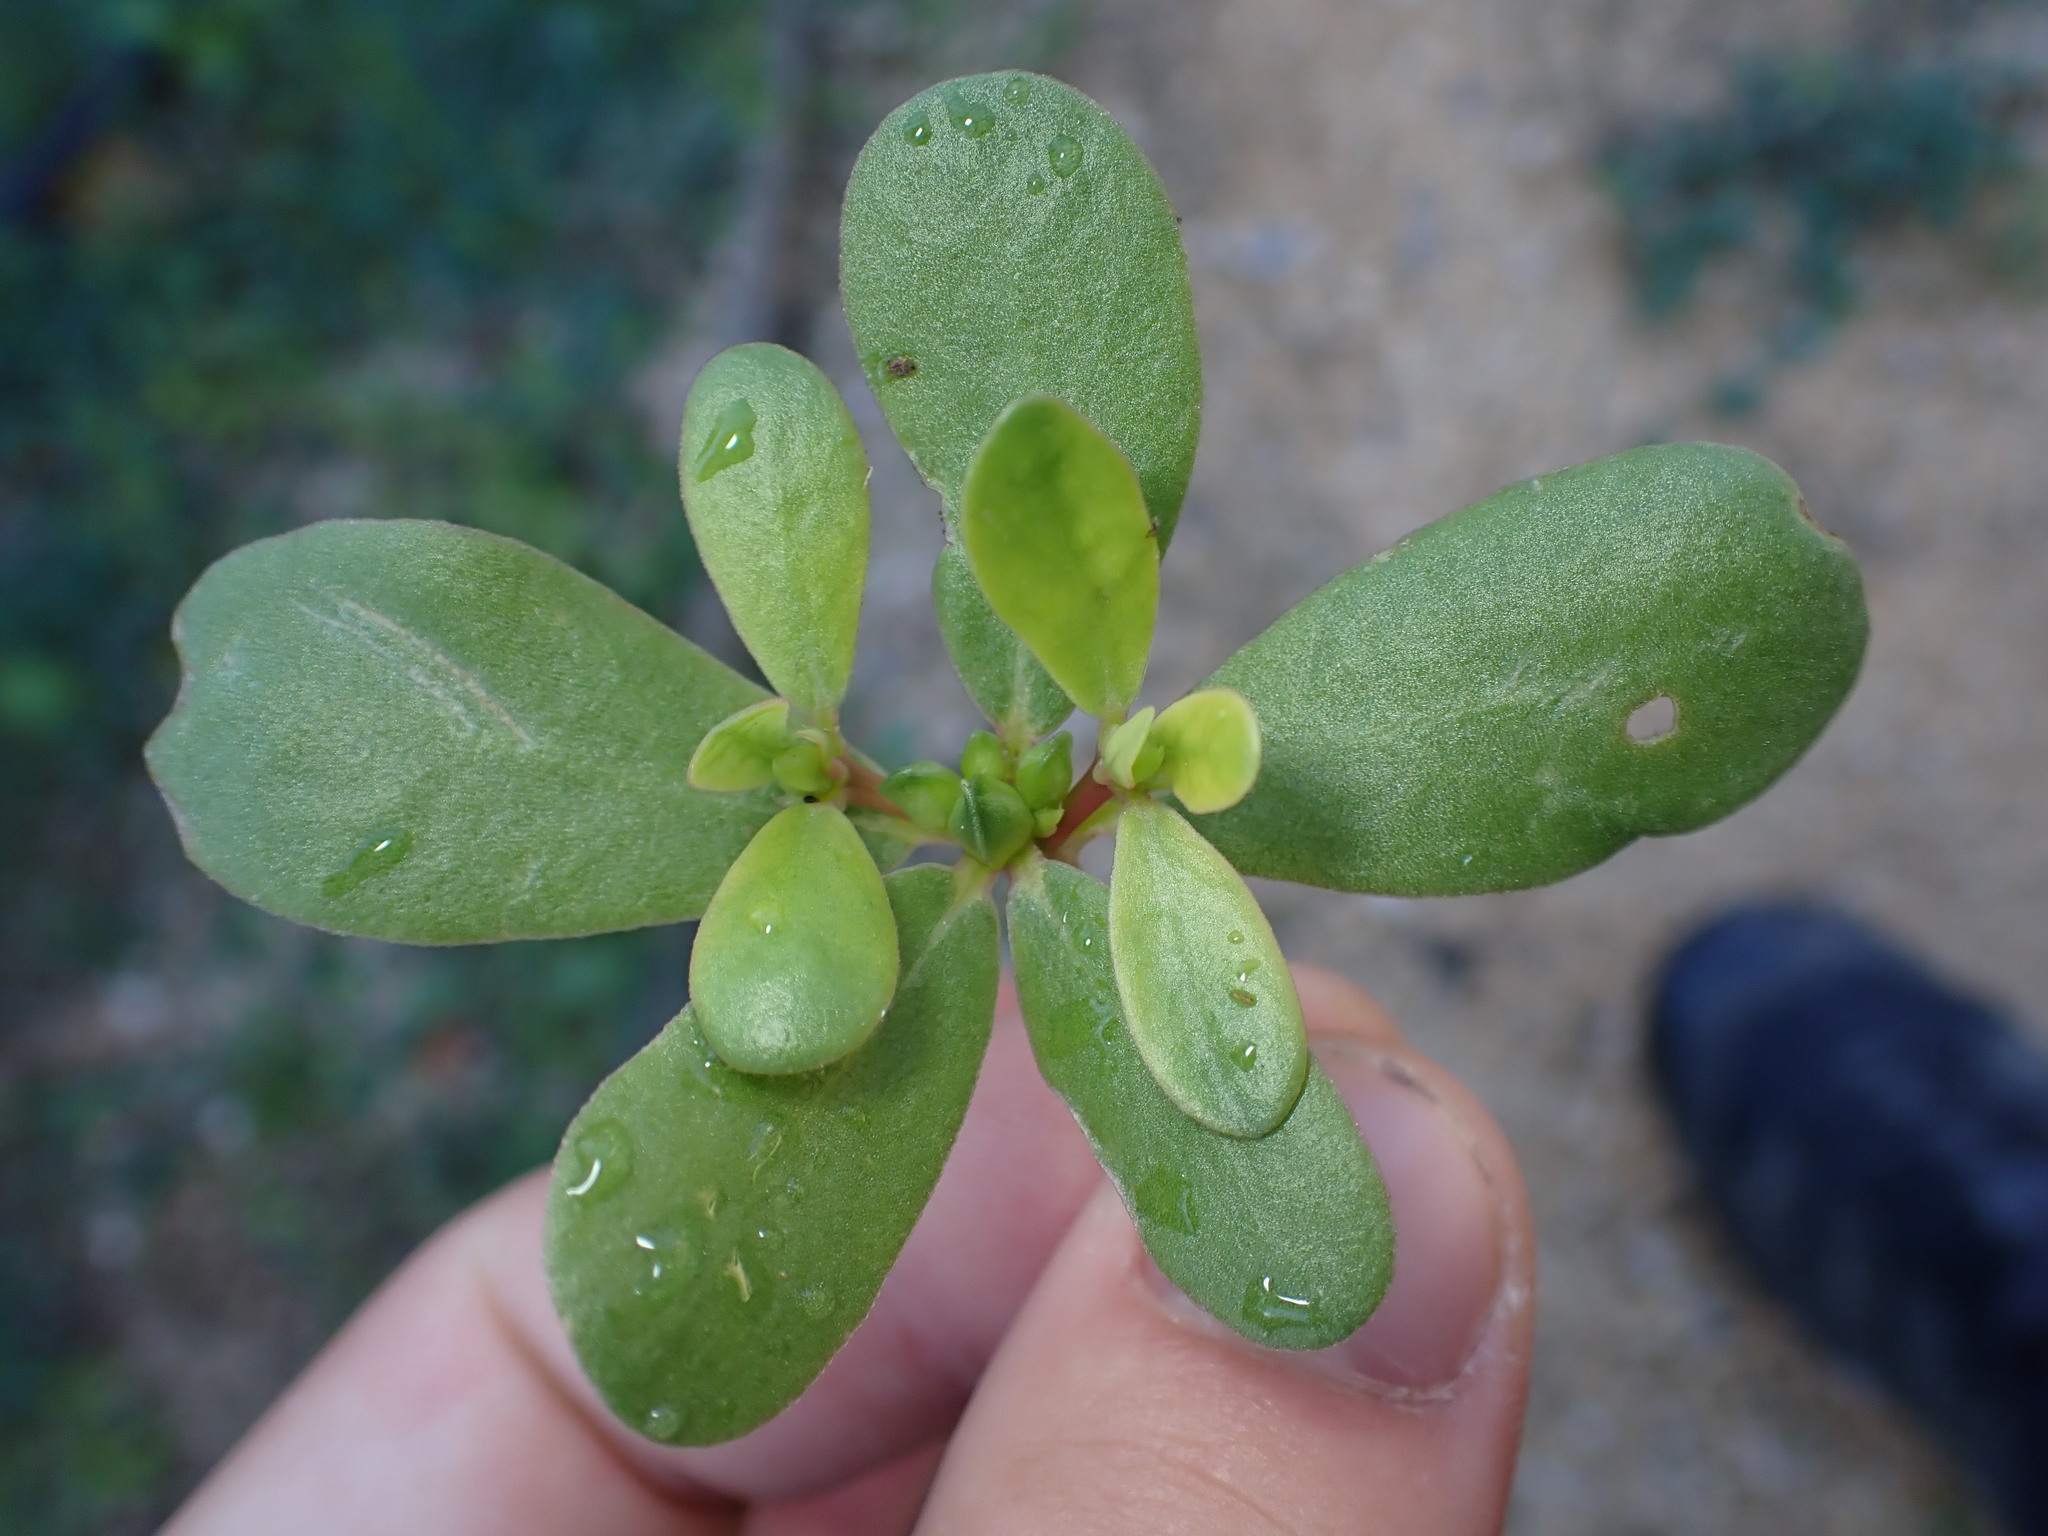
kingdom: Plantae
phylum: Tracheophyta
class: Magnoliopsida
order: Caryophyllales
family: Portulacaceae
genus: Portulaca
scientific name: Portulaca oleracea
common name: Common purslane
